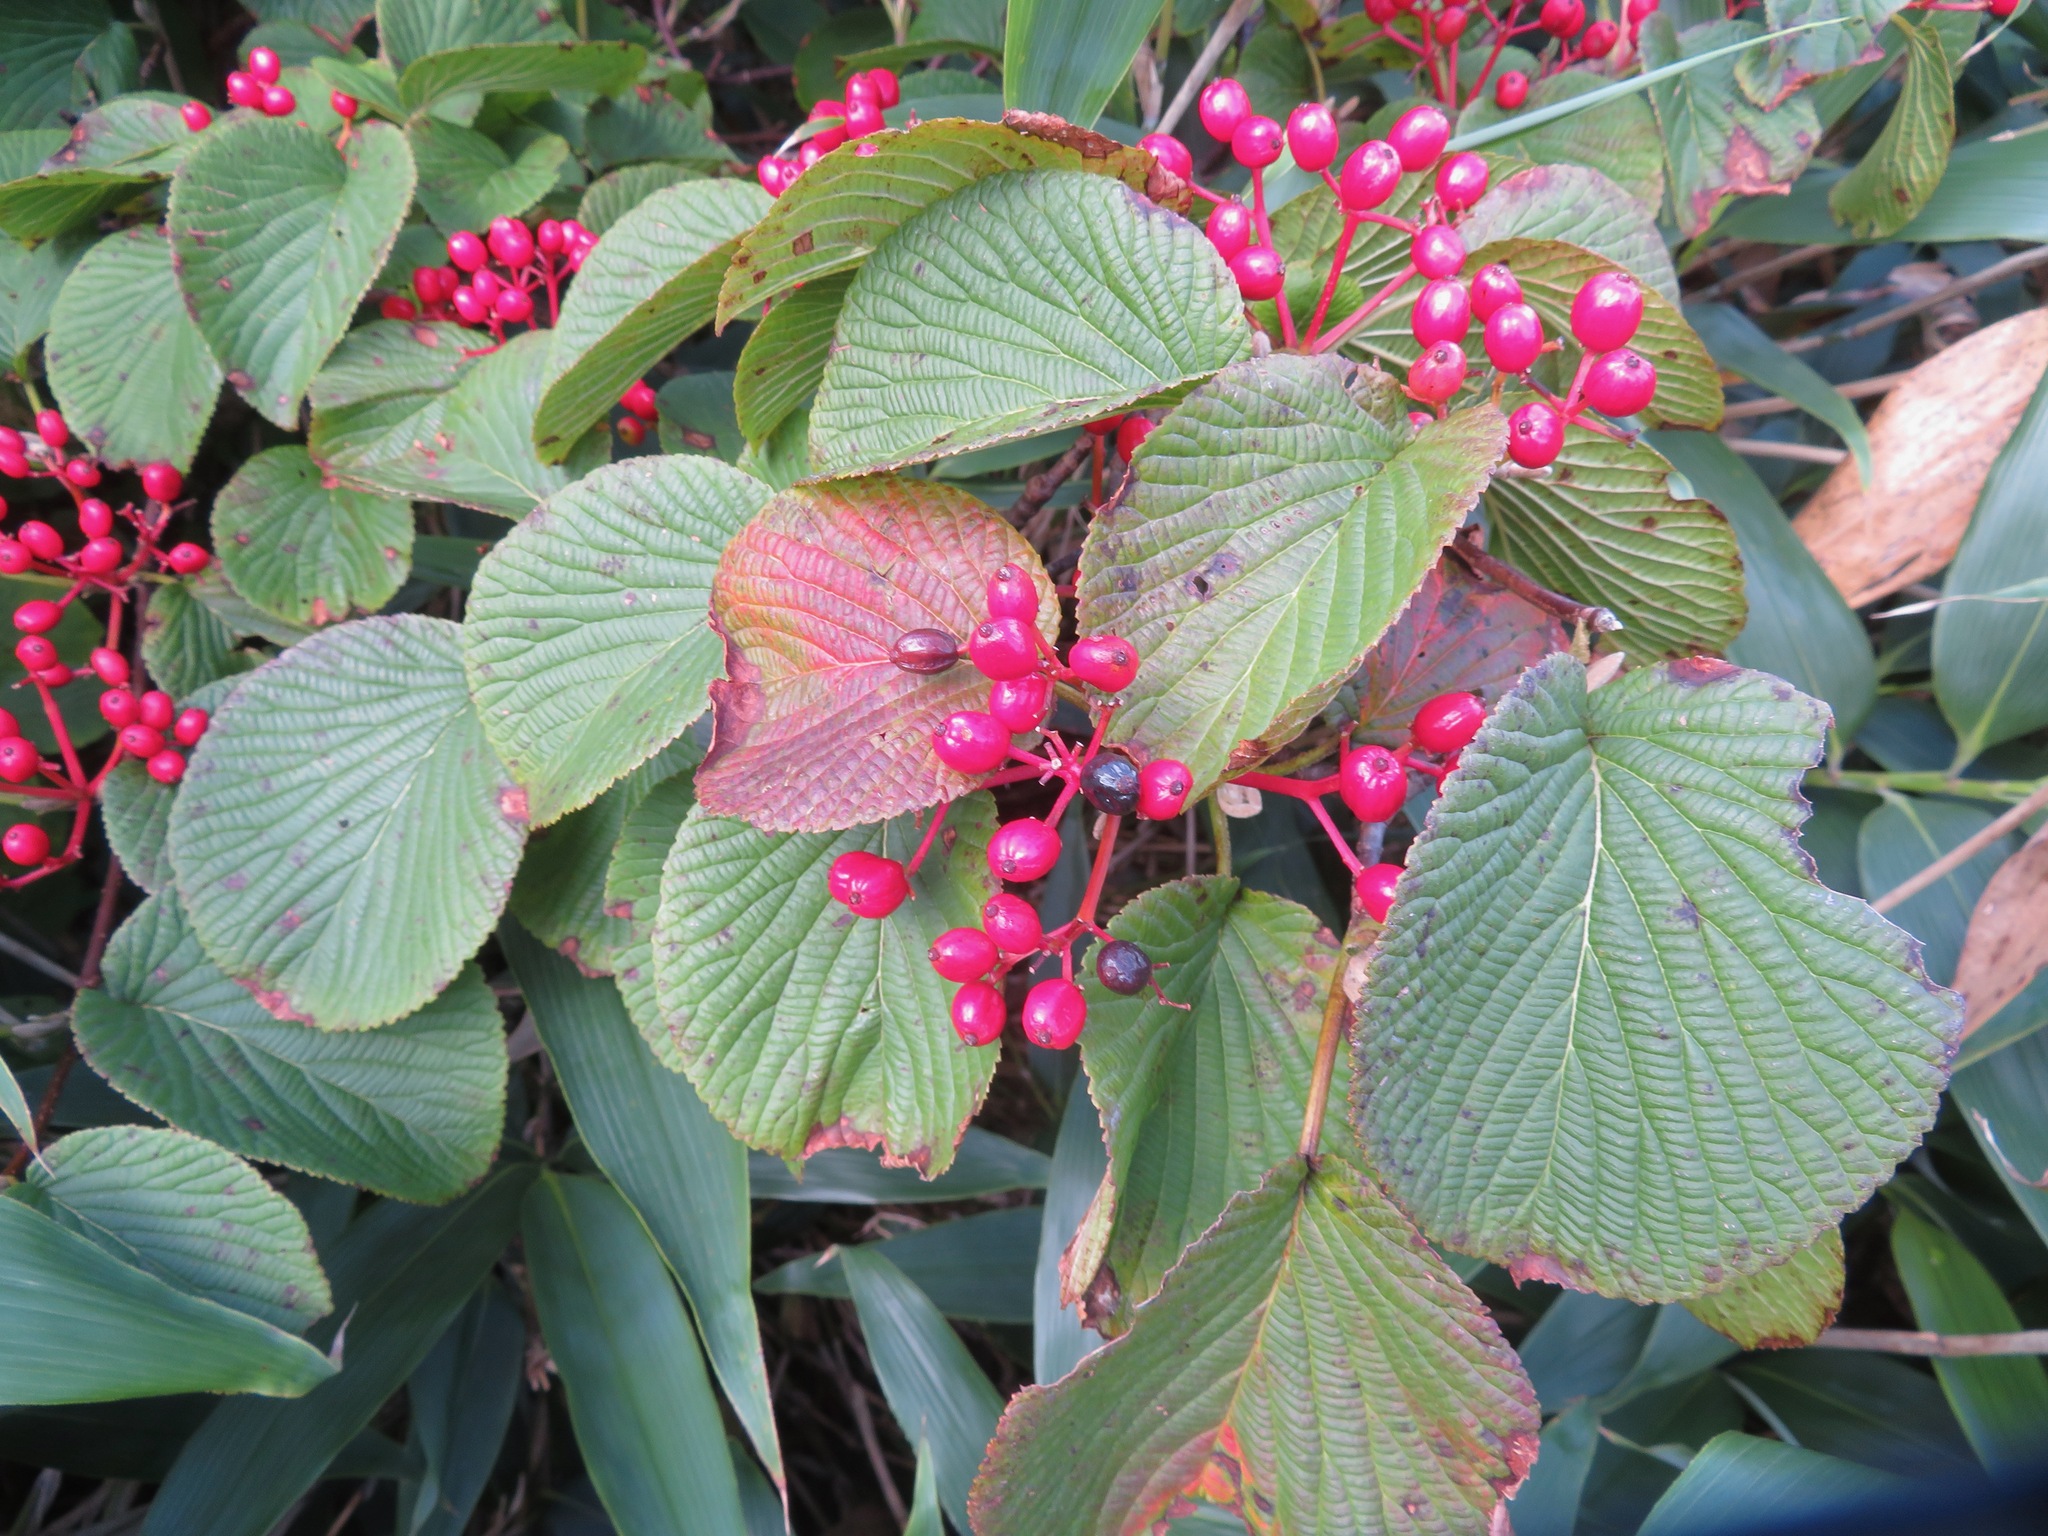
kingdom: Plantae
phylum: Tracheophyta
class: Magnoliopsida
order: Dipsacales
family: Viburnaceae
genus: Viburnum
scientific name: Viburnum furcatum
